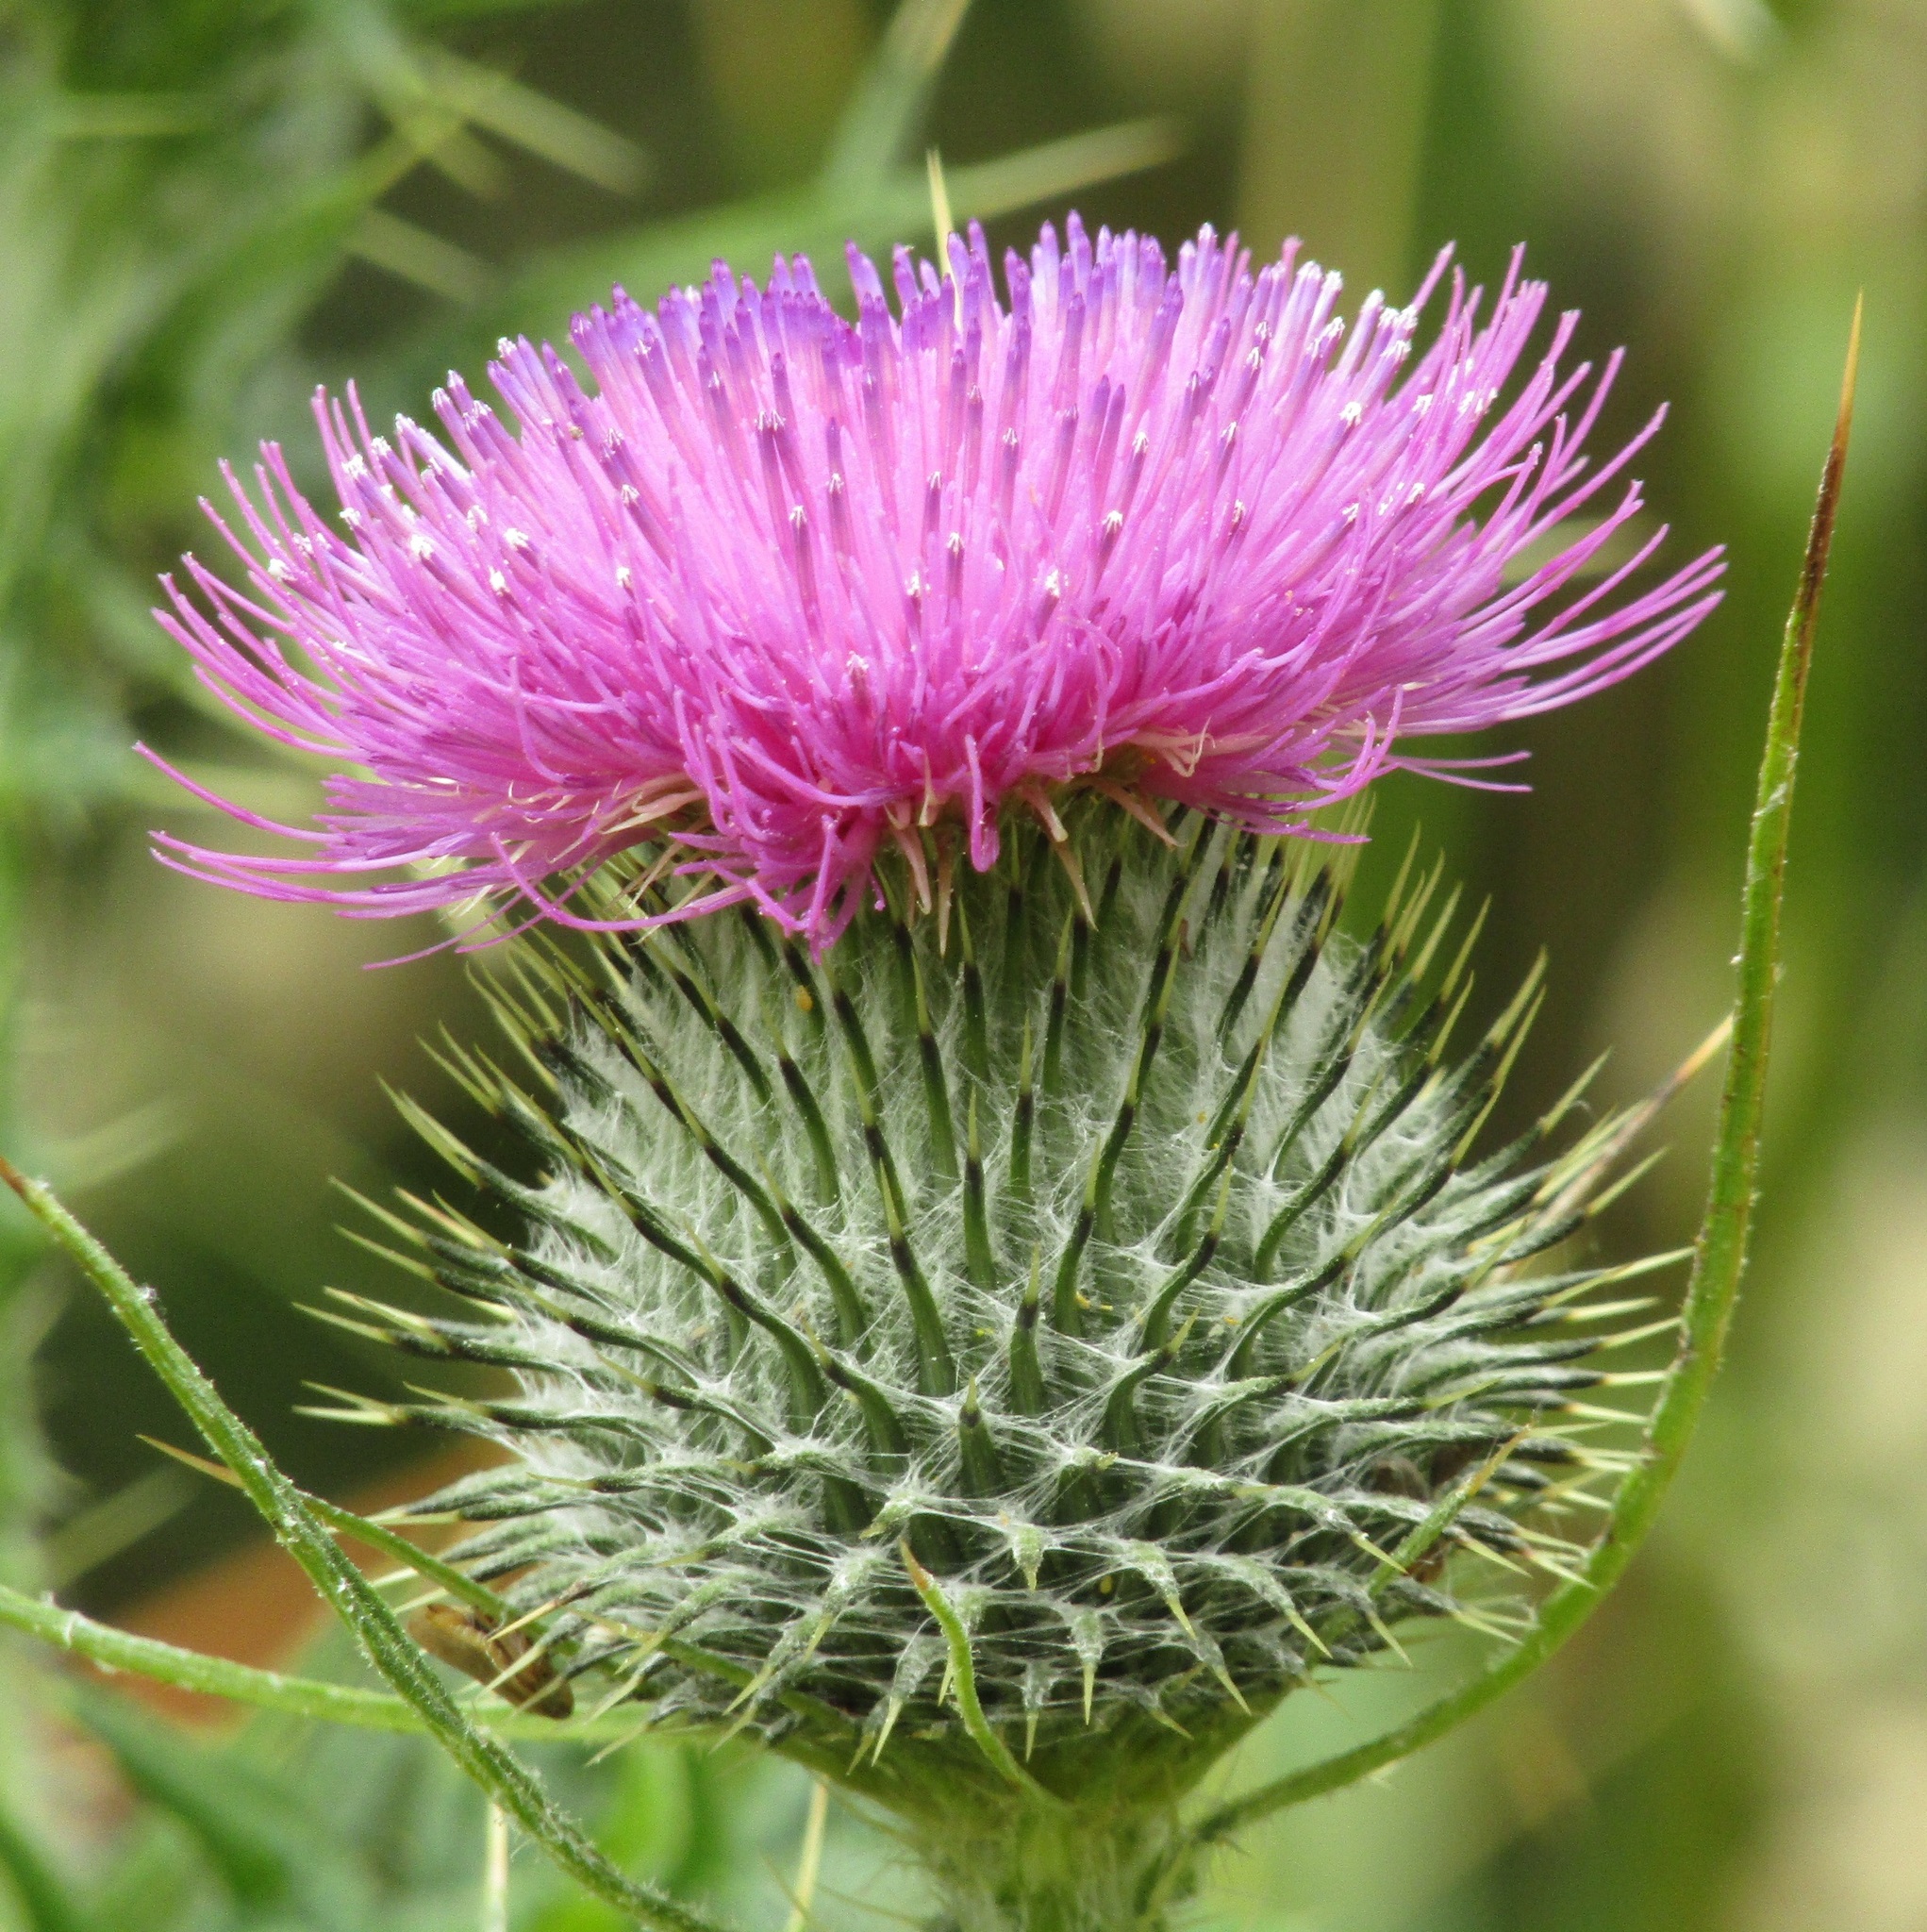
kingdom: Plantae
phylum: Tracheophyta
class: Magnoliopsida
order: Asterales
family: Asteraceae
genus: Cirsium
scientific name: Cirsium vulgare
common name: Bull thistle
